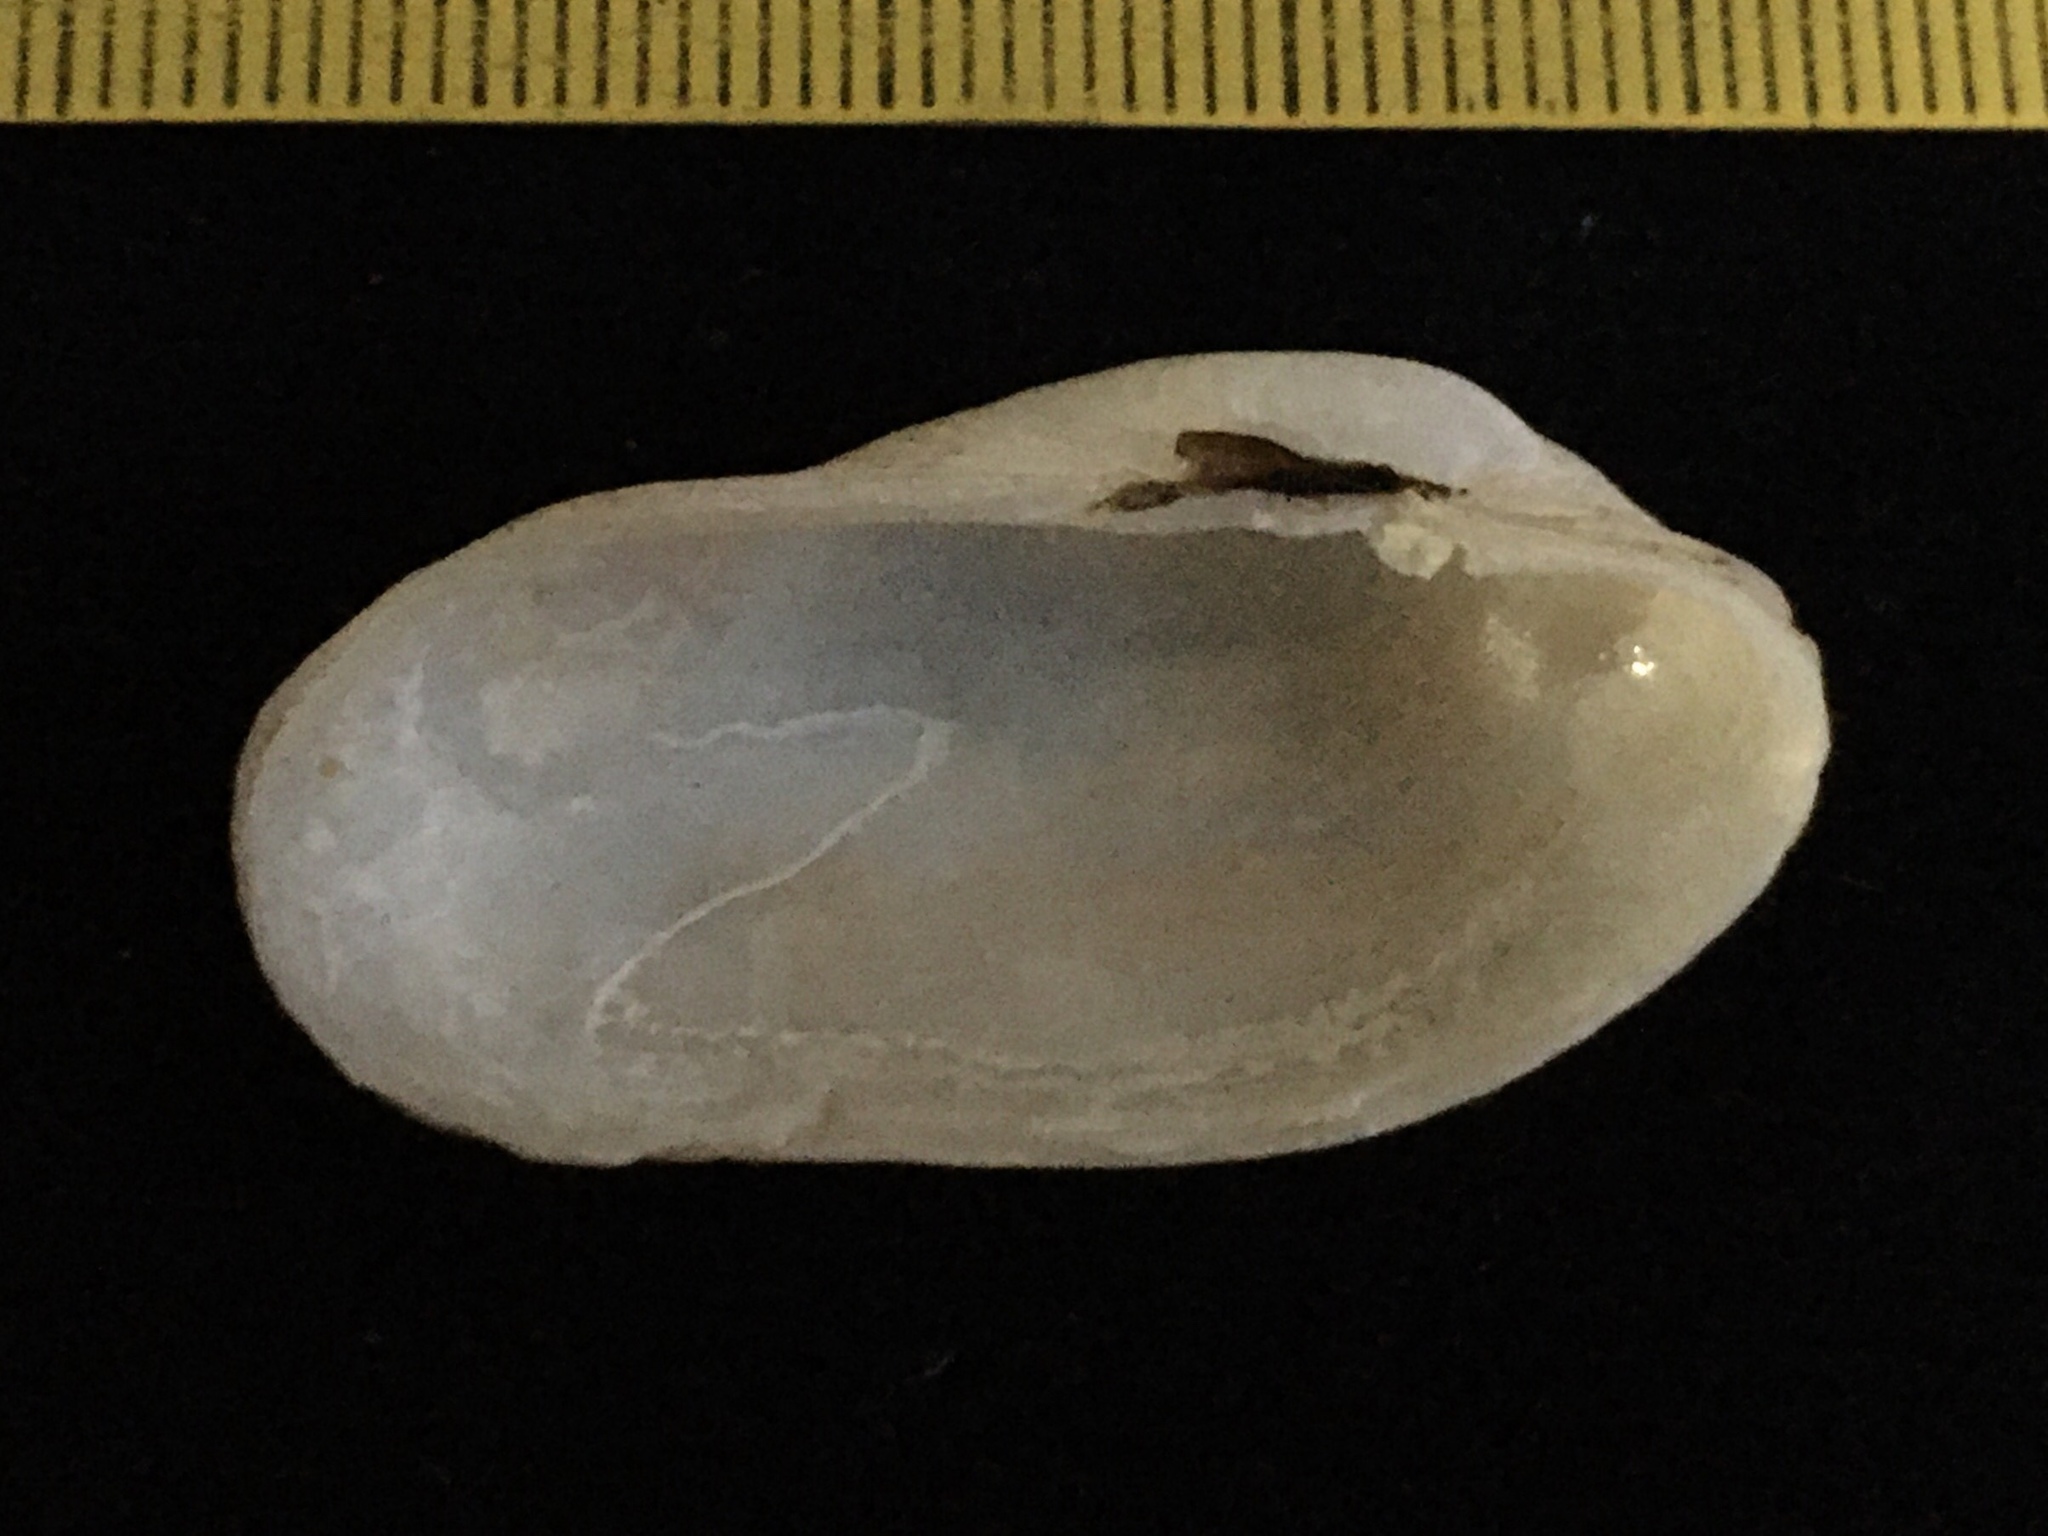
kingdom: Animalia
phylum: Mollusca
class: Bivalvia
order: Venerida
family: Veneridae
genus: Petricola
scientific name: Petricola dactylus
